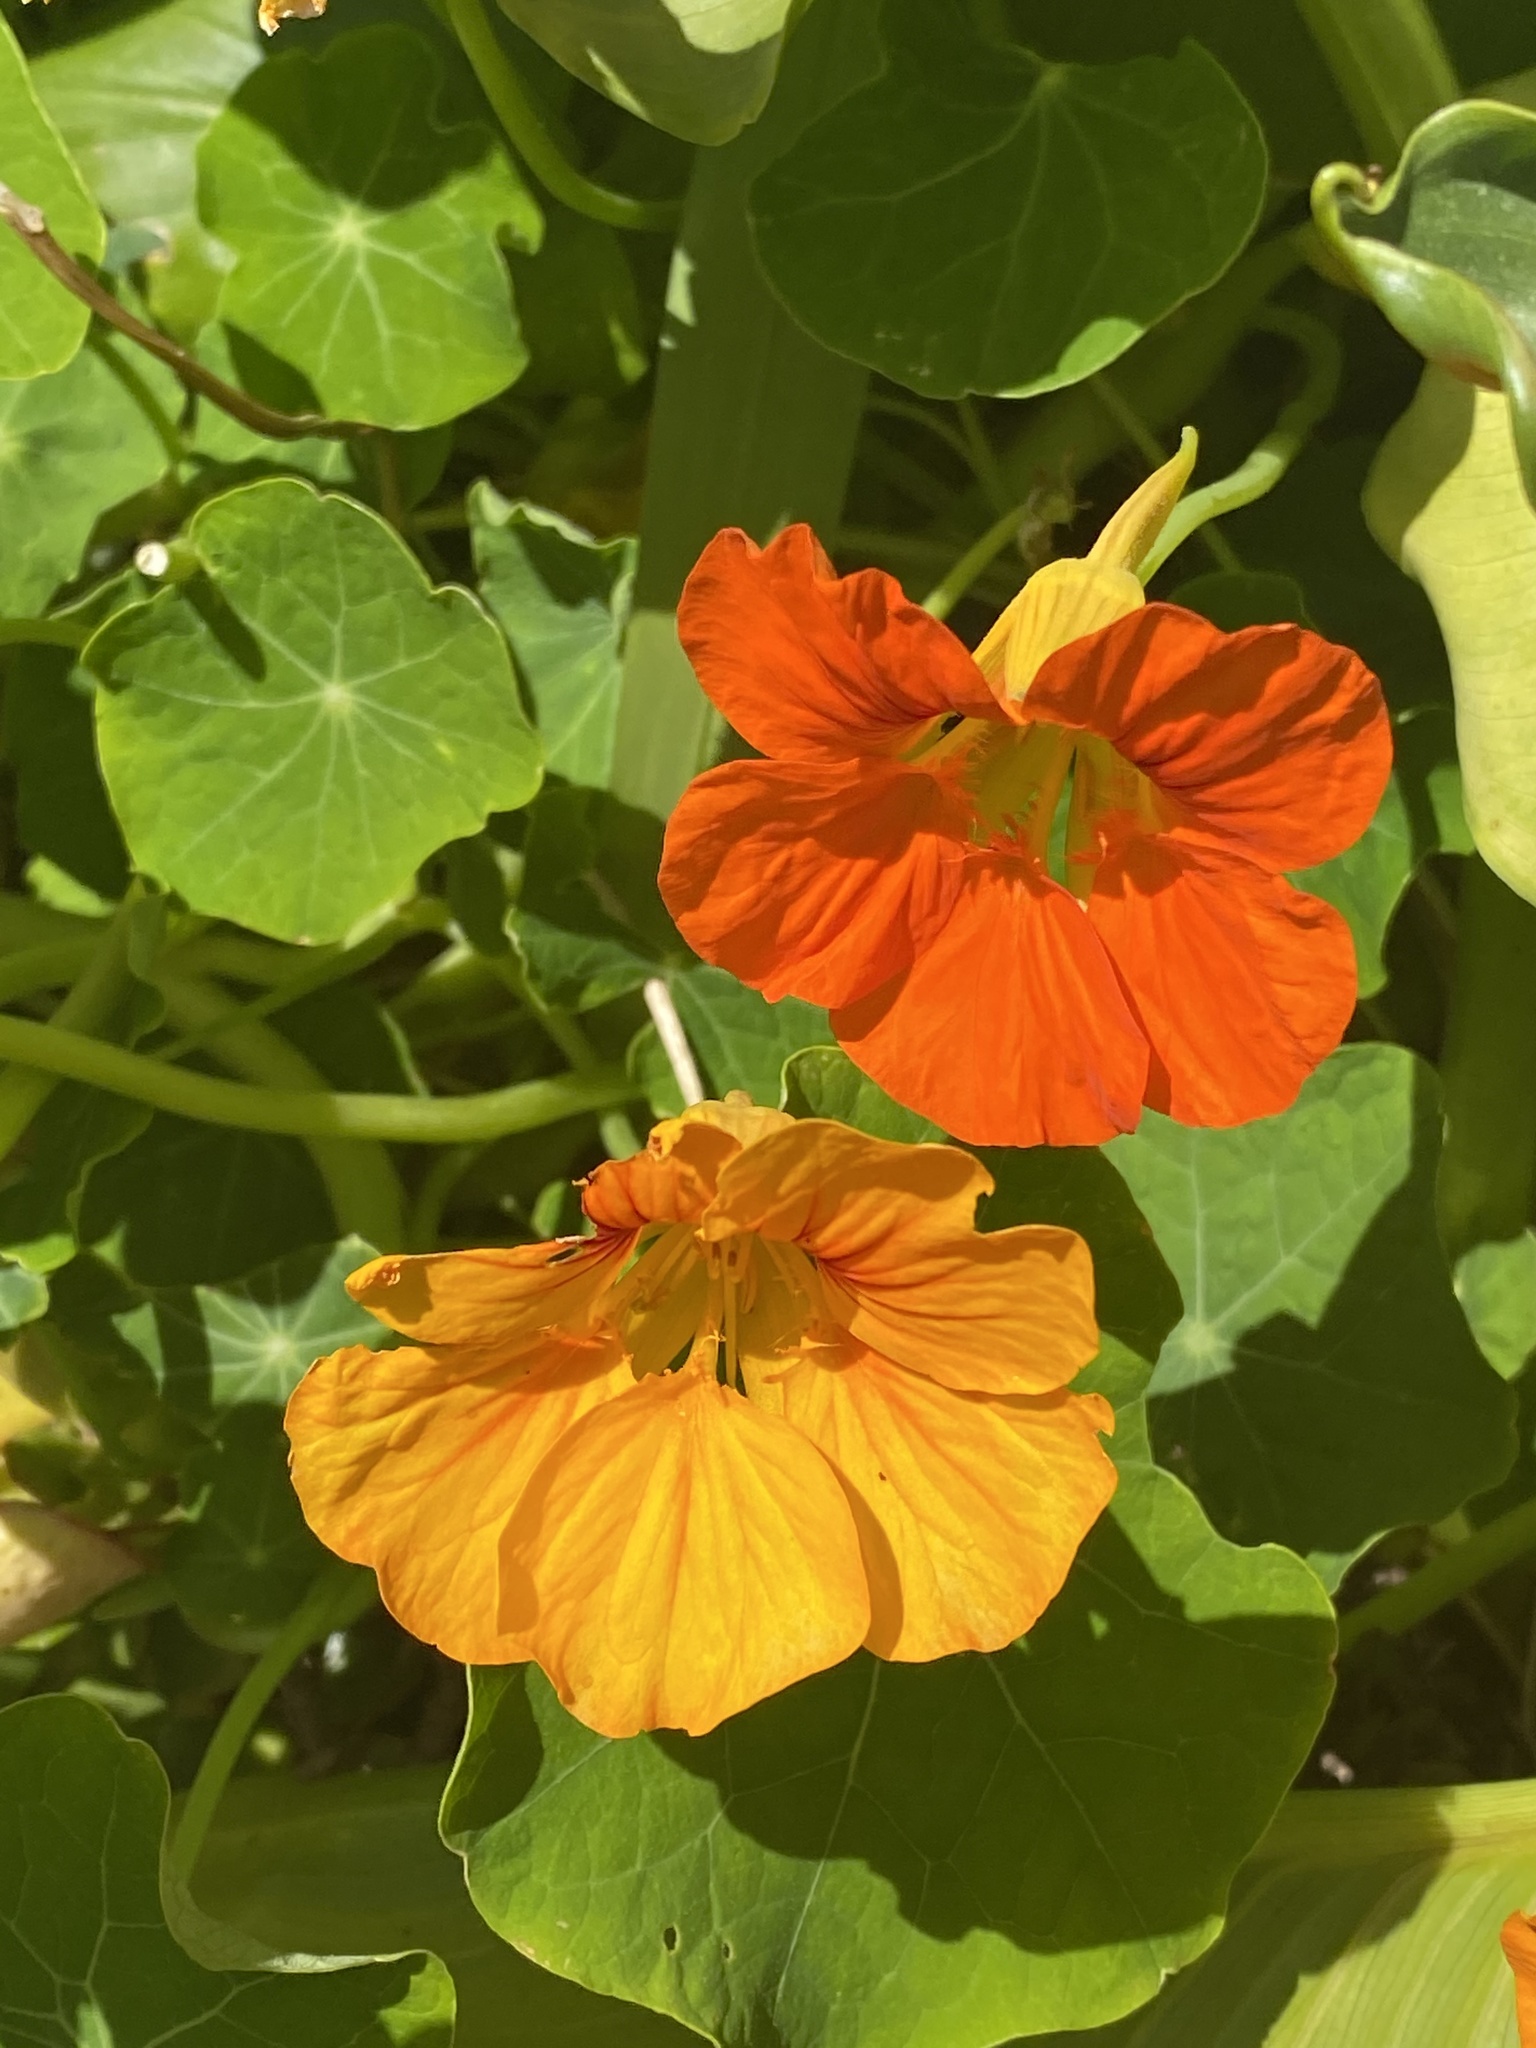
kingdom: Plantae
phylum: Tracheophyta
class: Magnoliopsida
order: Brassicales
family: Tropaeolaceae
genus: Tropaeolum
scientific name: Tropaeolum majus
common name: Nasturtium
